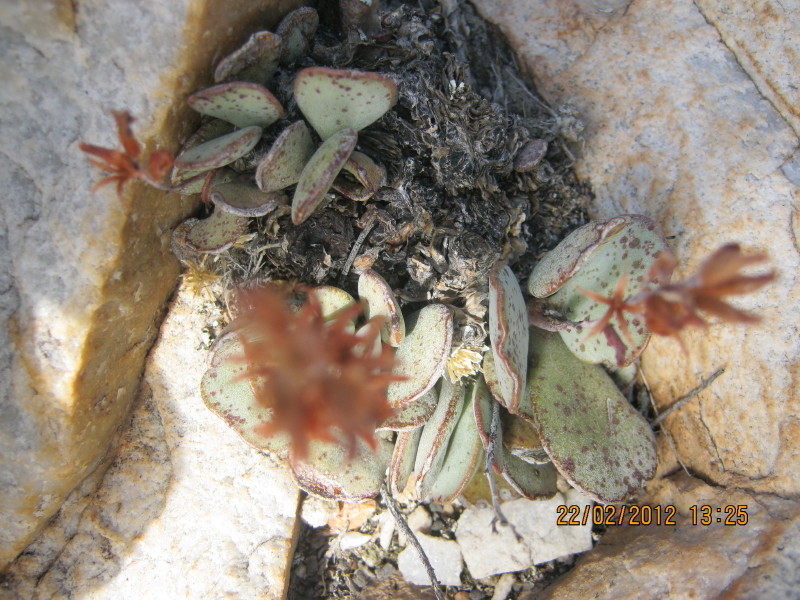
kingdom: Plantae
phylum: Tracheophyta
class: Magnoliopsida
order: Saxifragales
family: Crassulaceae
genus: Adromischus
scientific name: Adromischus triflorus
